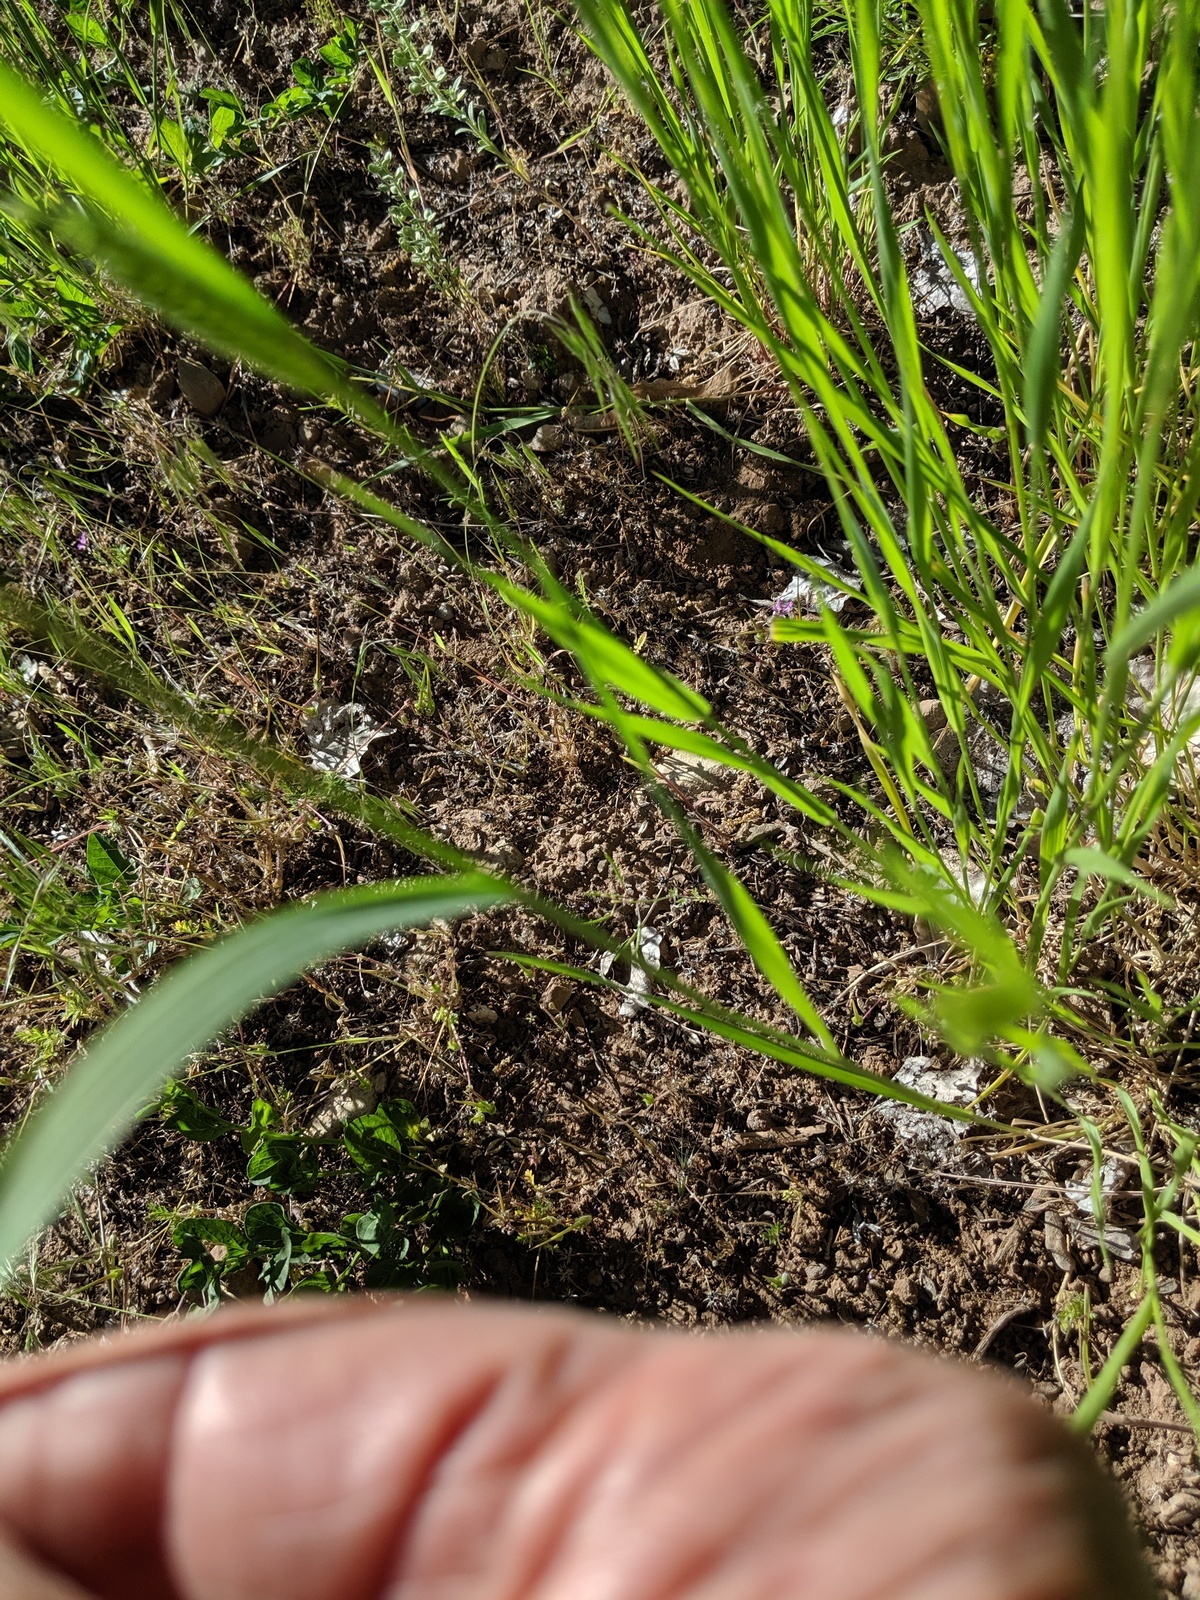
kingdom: Plantae
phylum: Tracheophyta
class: Liliopsida
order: Poales
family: Poaceae
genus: Agropyron
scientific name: Agropyron cristatum
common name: Crested wheatgrass
